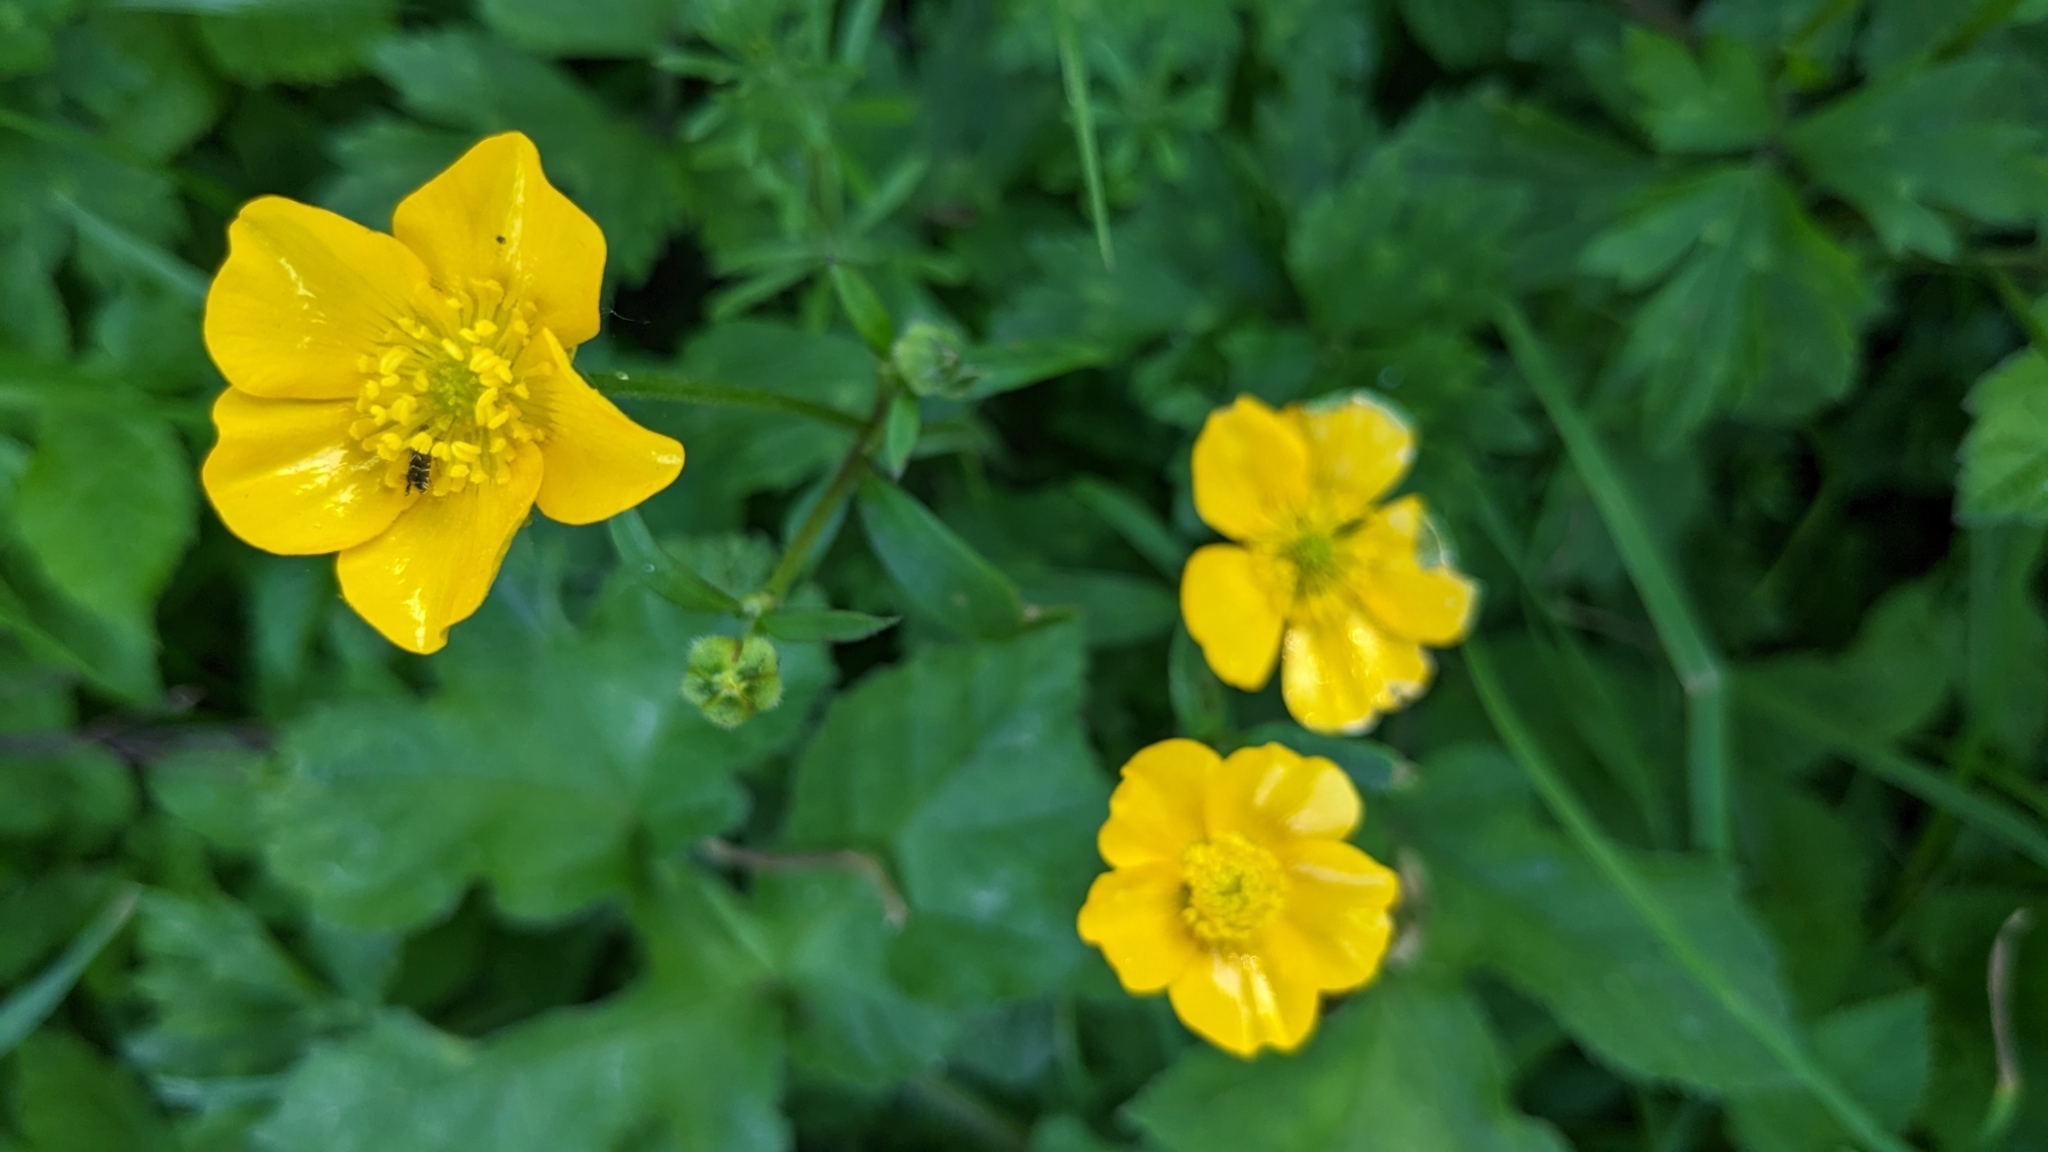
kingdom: Plantae
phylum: Tracheophyta
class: Magnoliopsida
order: Ranunculales
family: Ranunculaceae
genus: Ranunculus
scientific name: Ranunculus repens
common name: Creeping buttercup
